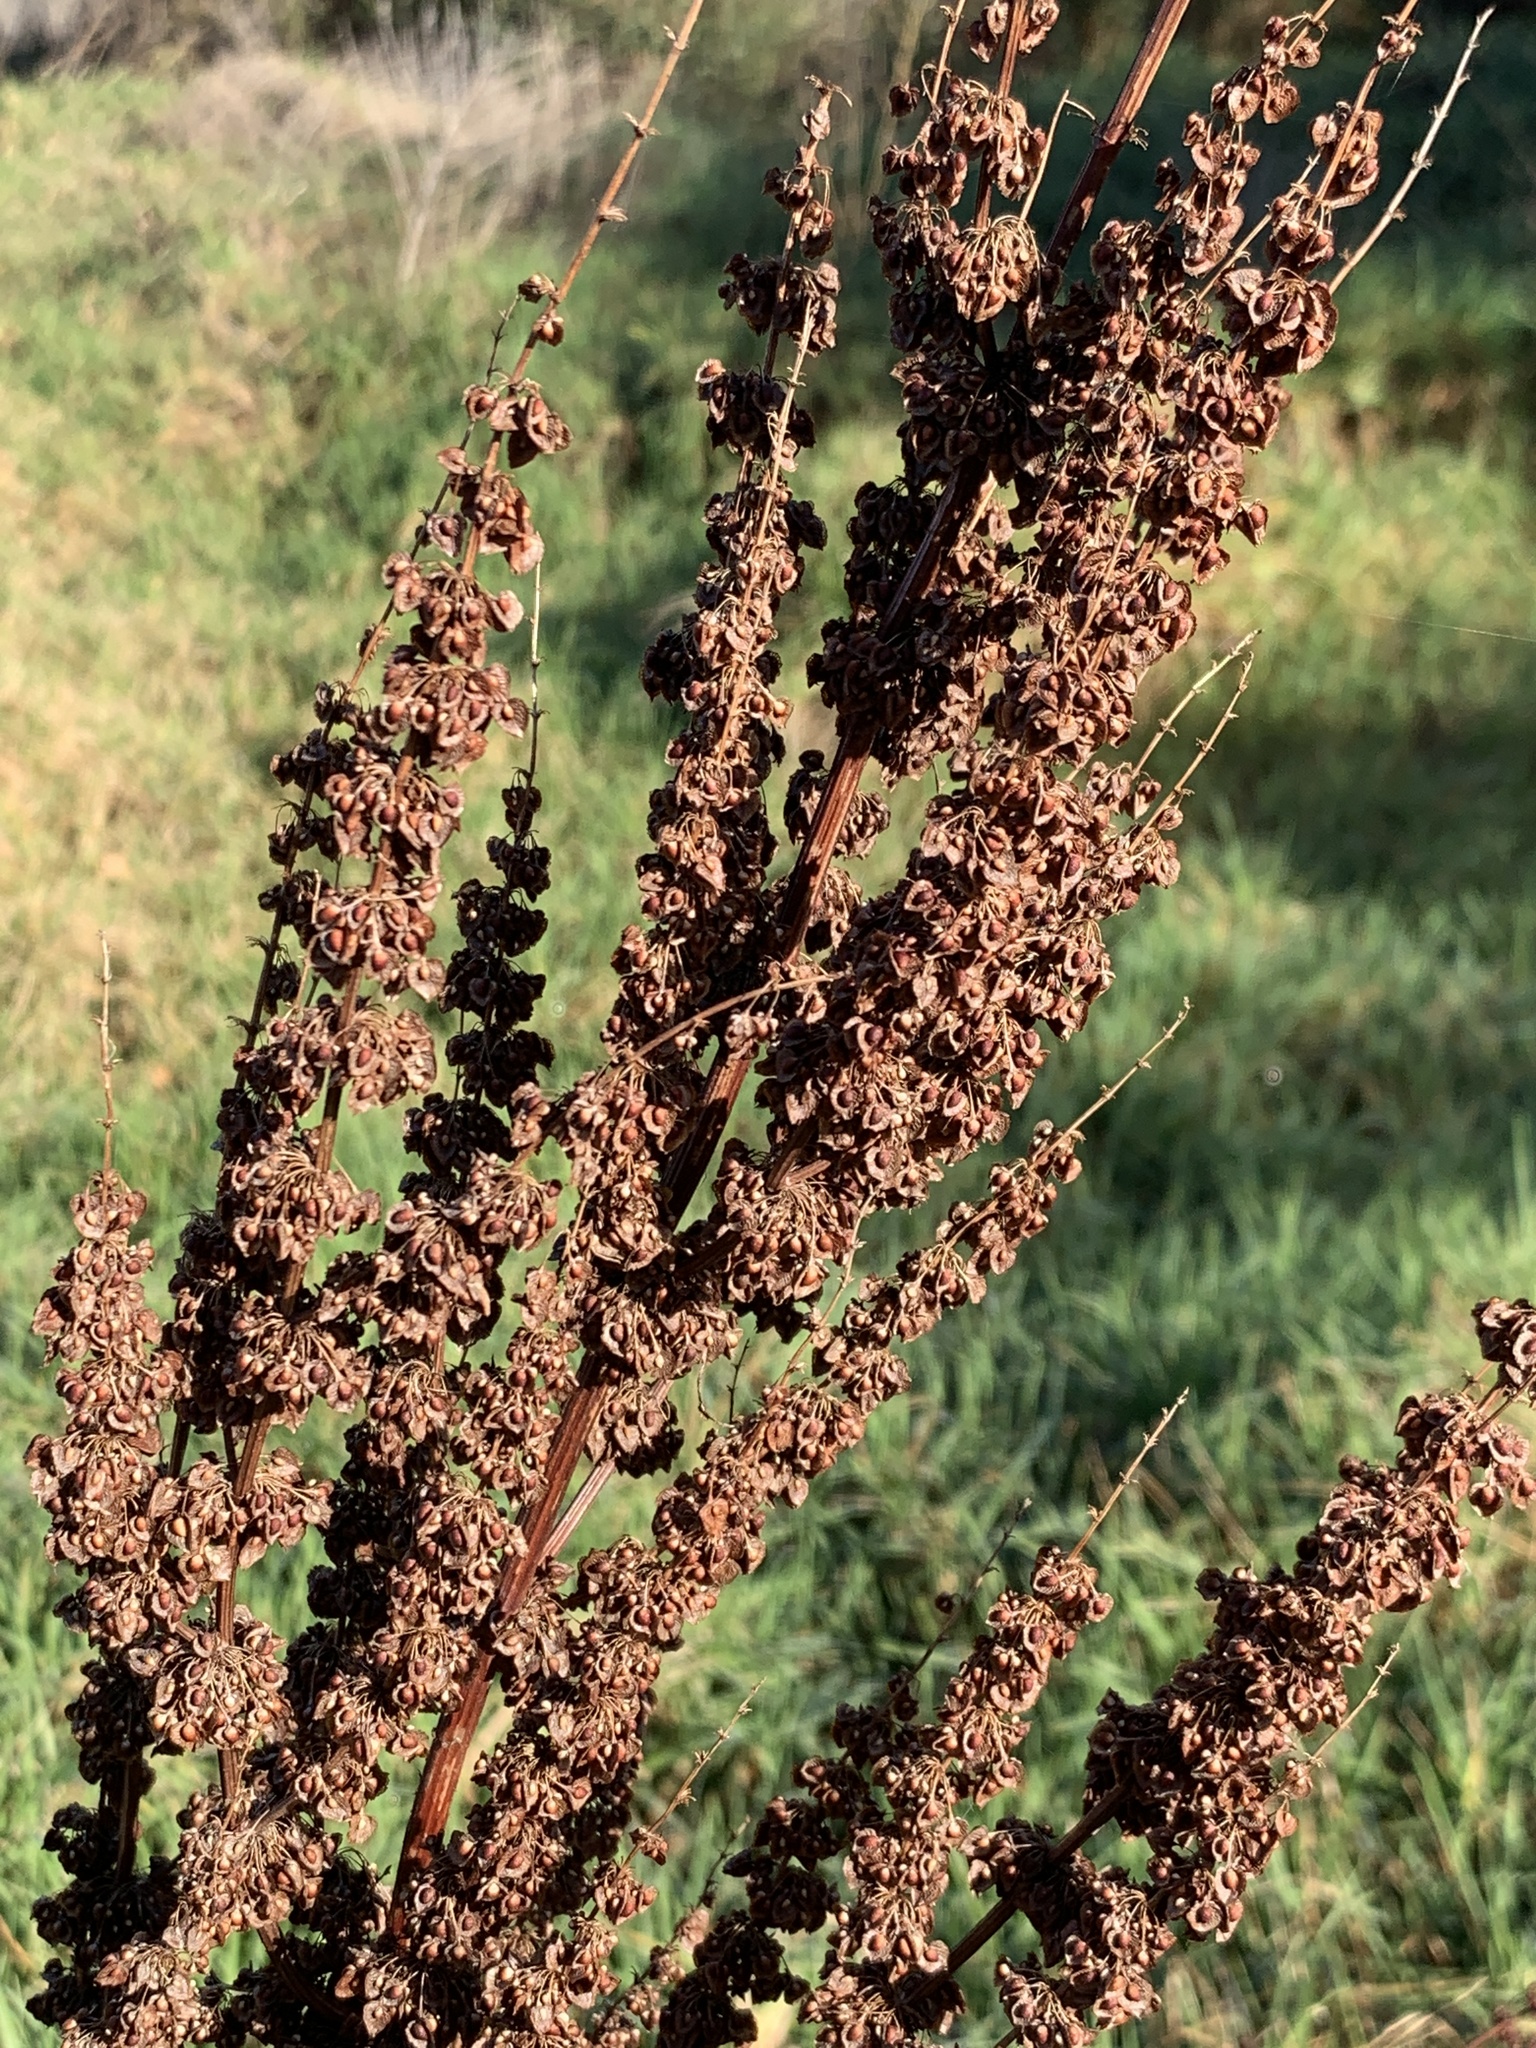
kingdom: Plantae
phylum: Tracheophyta
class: Magnoliopsida
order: Caryophyllales
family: Polygonaceae
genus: Rumex
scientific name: Rumex crispus
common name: Curled dock
